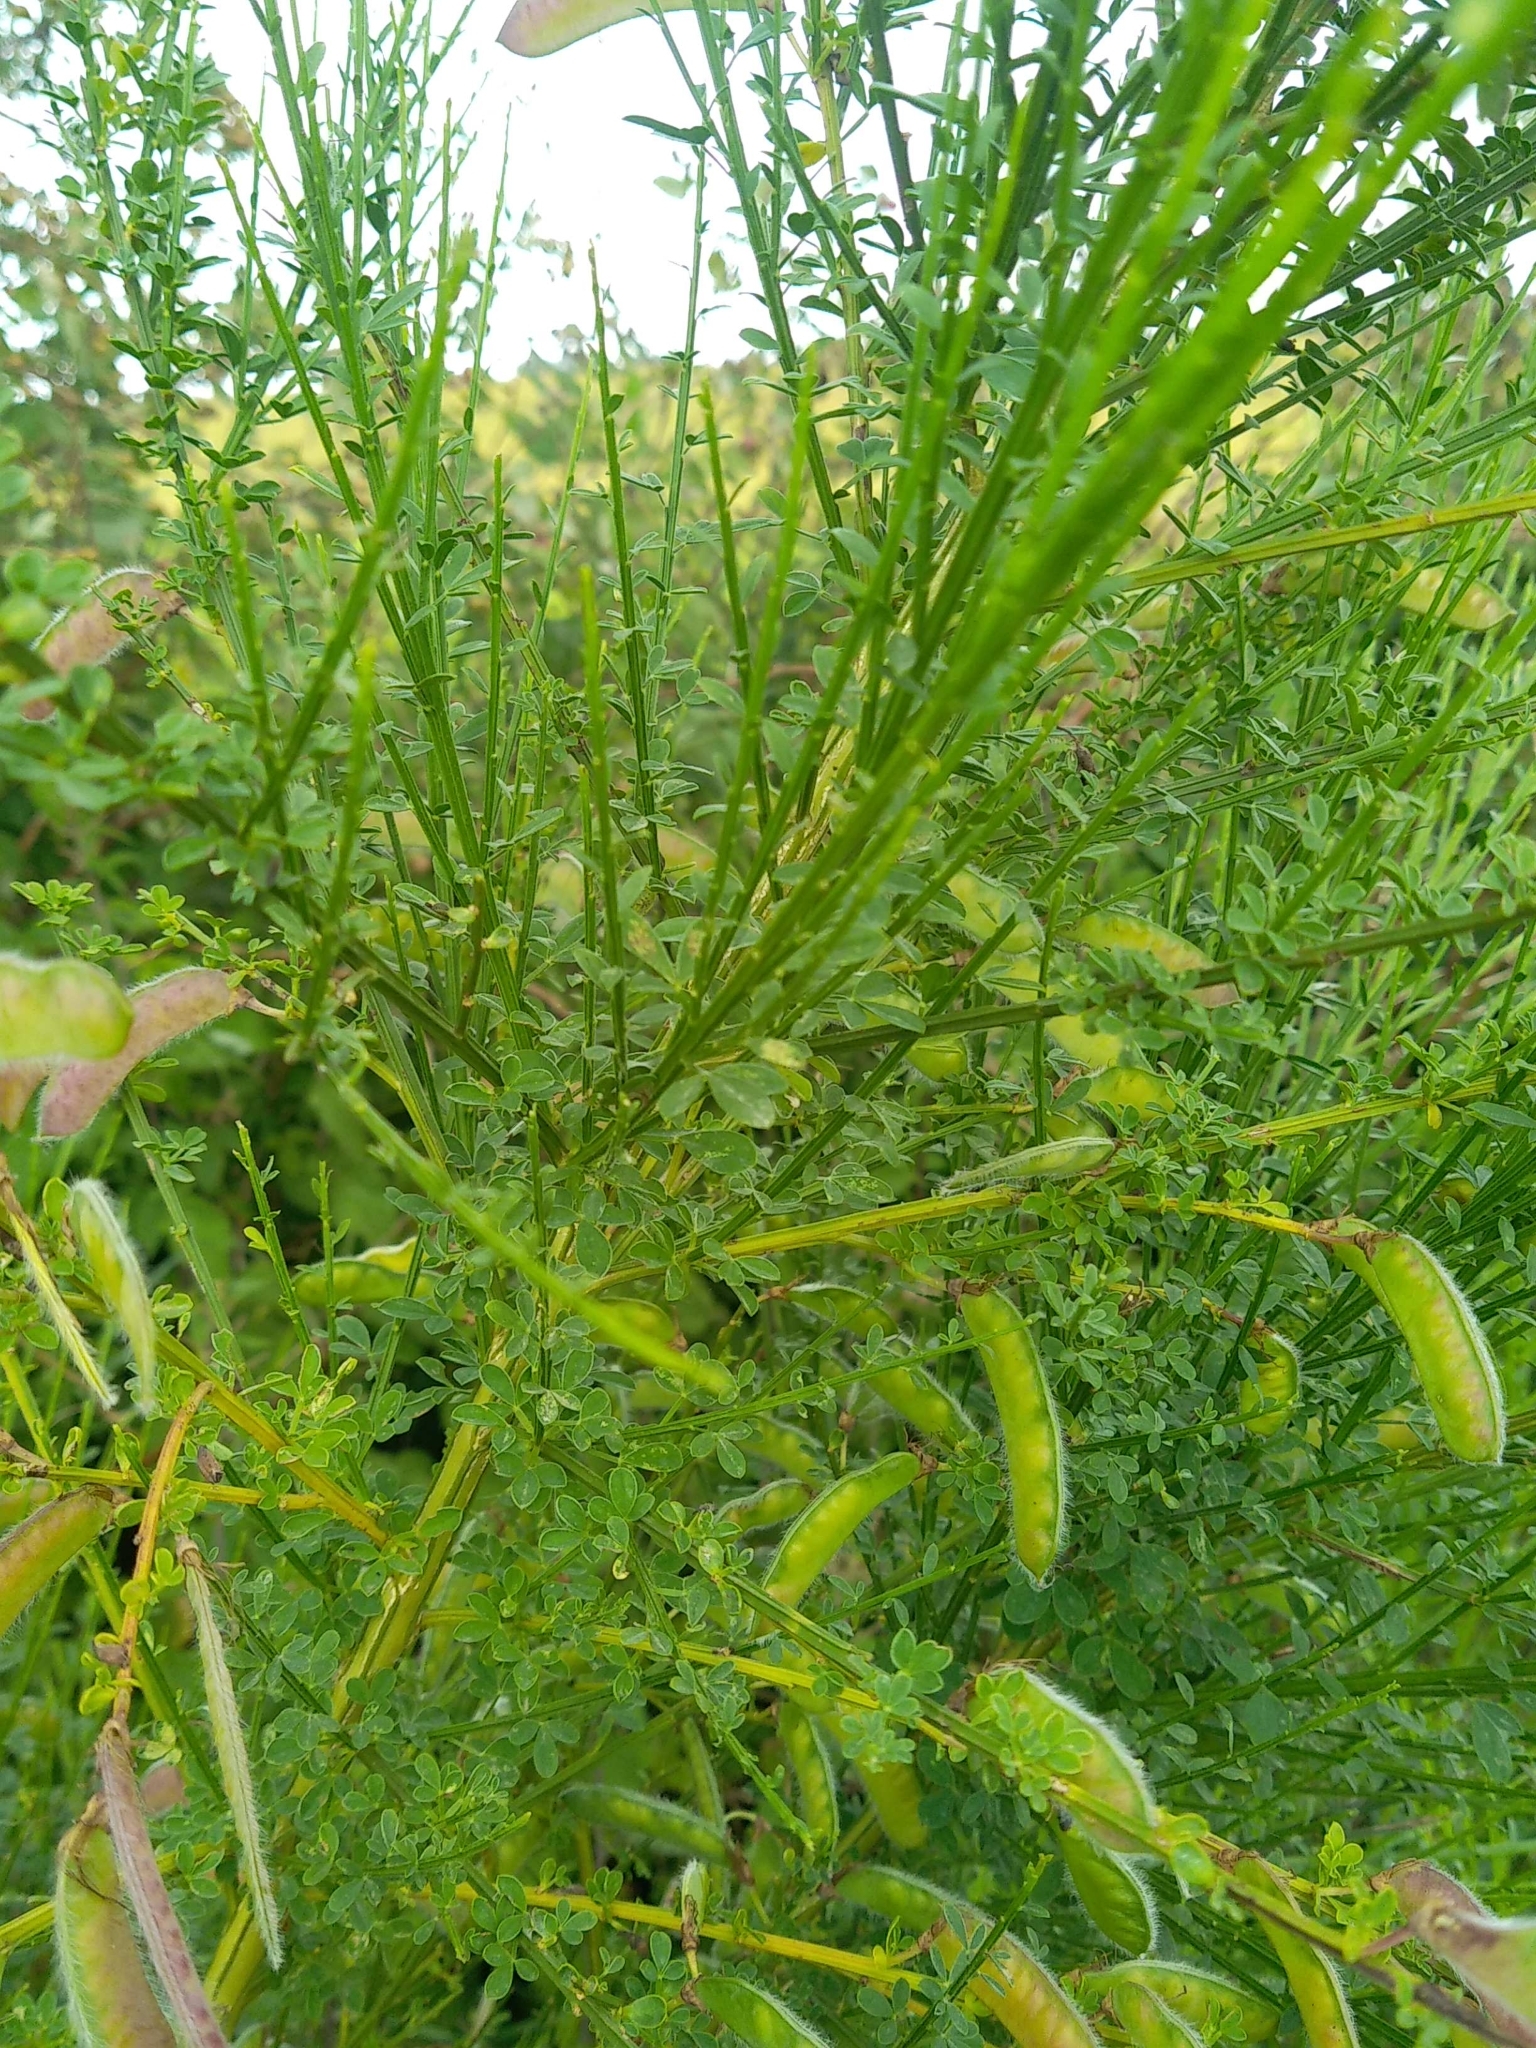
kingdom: Plantae
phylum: Tracheophyta
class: Magnoliopsida
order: Fabales
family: Fabaceae
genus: Cytisus
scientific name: Cytisus scoparius
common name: Scotch broom
